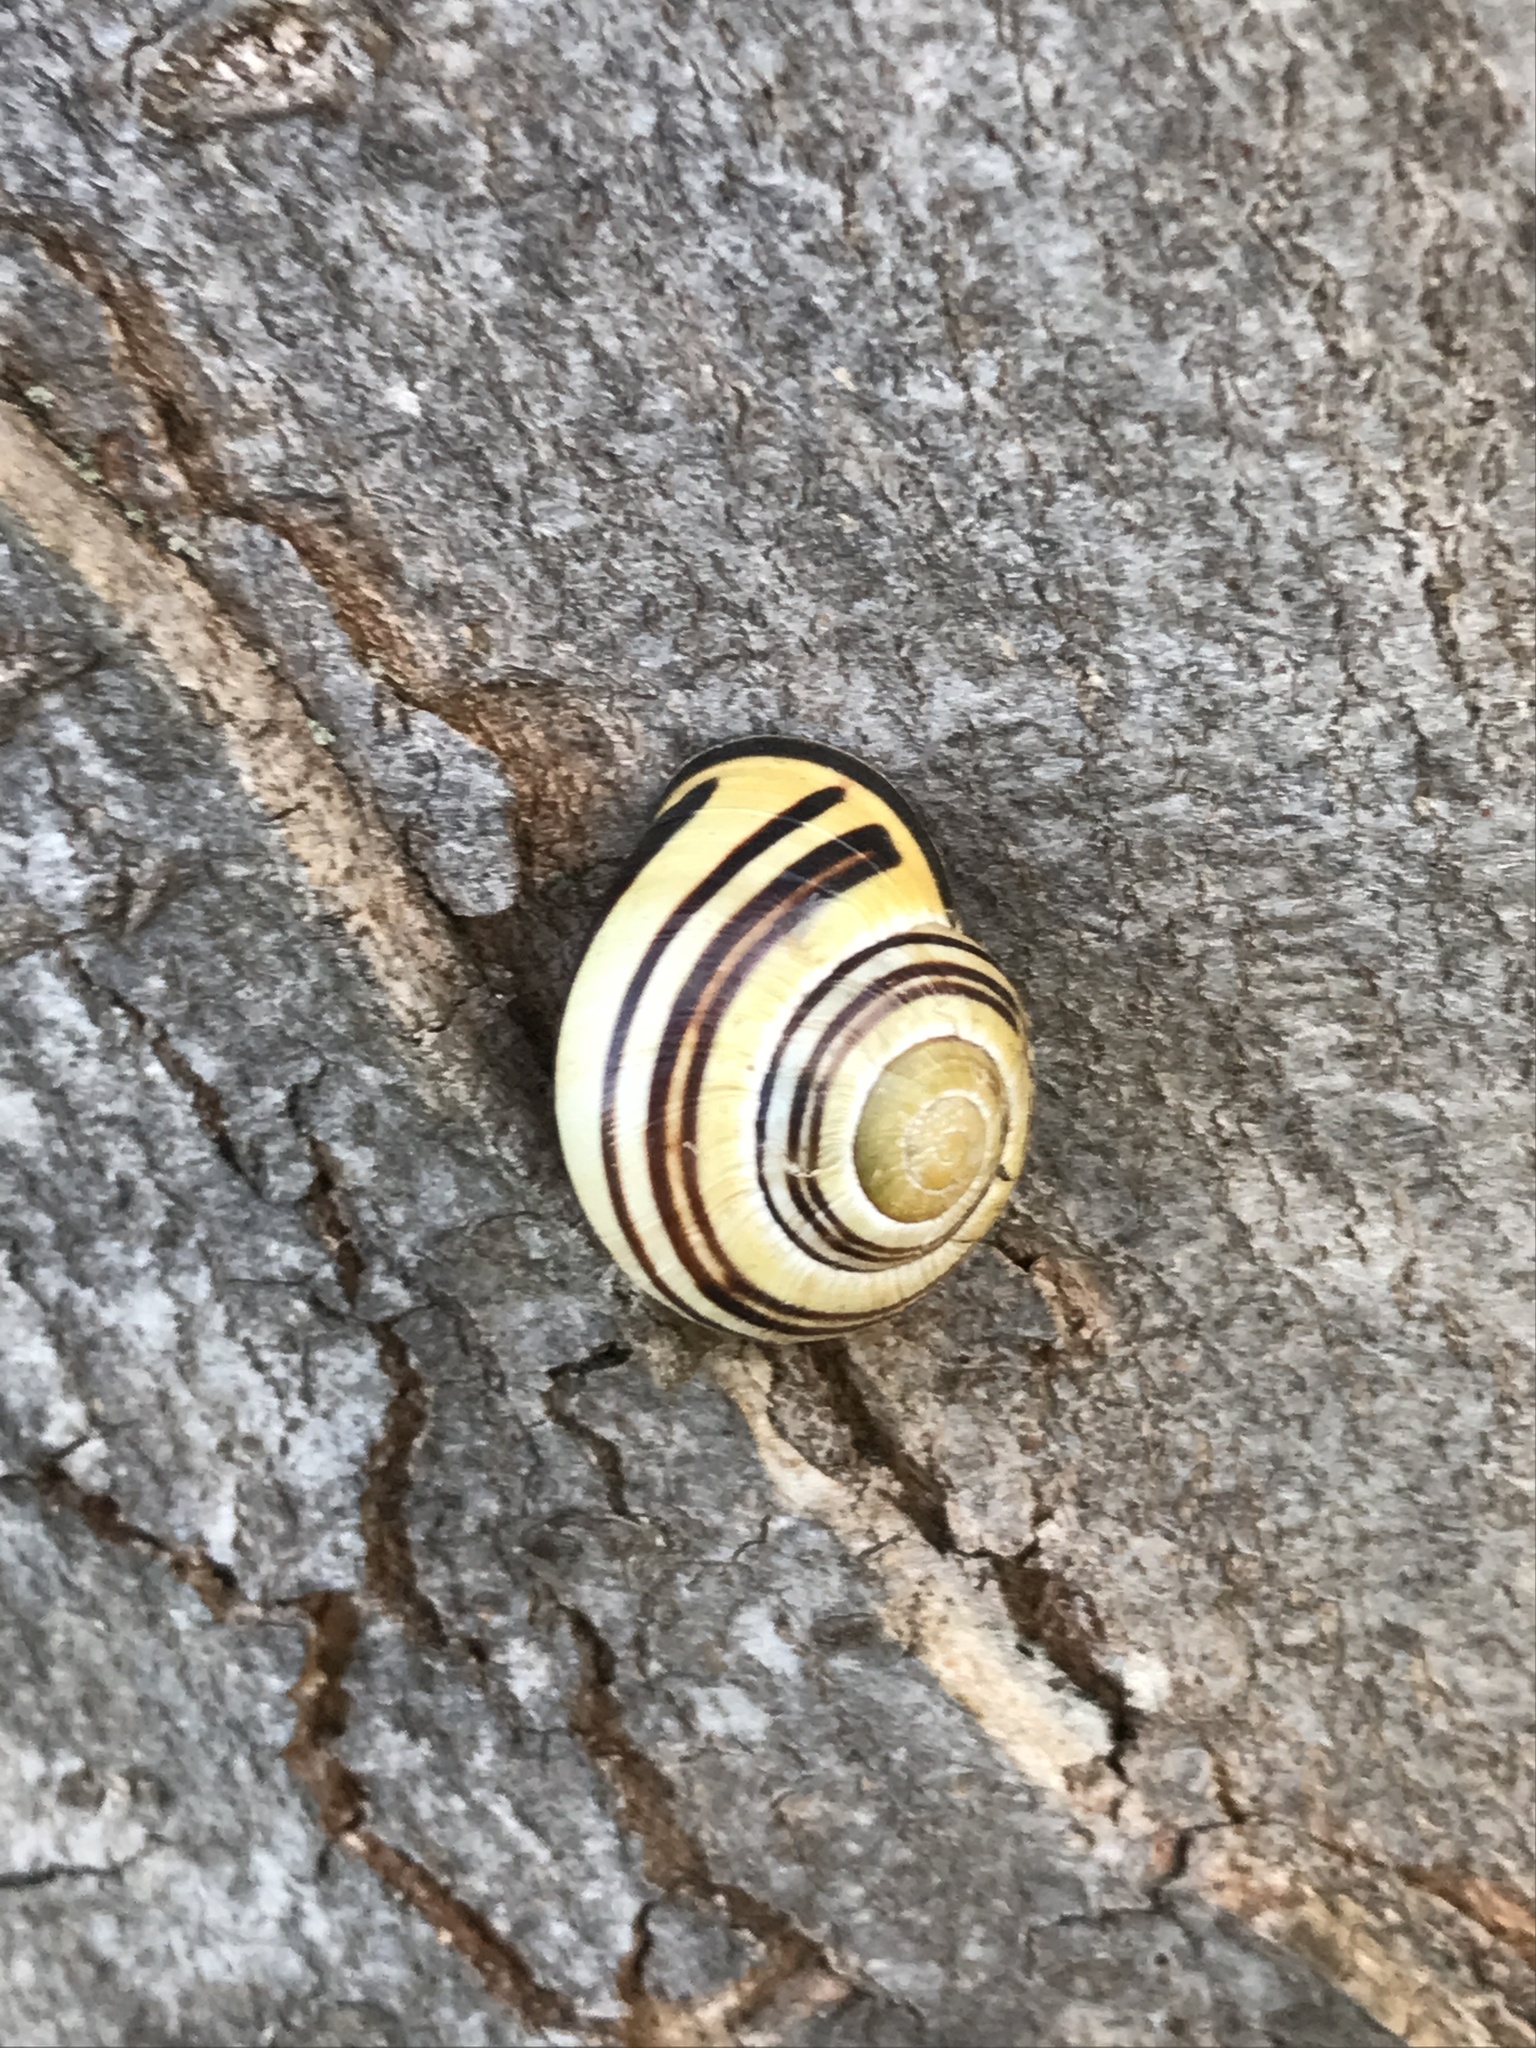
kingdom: Animalia
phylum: Mollusca
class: Gastropoda
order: Stylommatophora
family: Helicidae
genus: Cepaea
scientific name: Cepaea nemoralis
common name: Grovesnail
